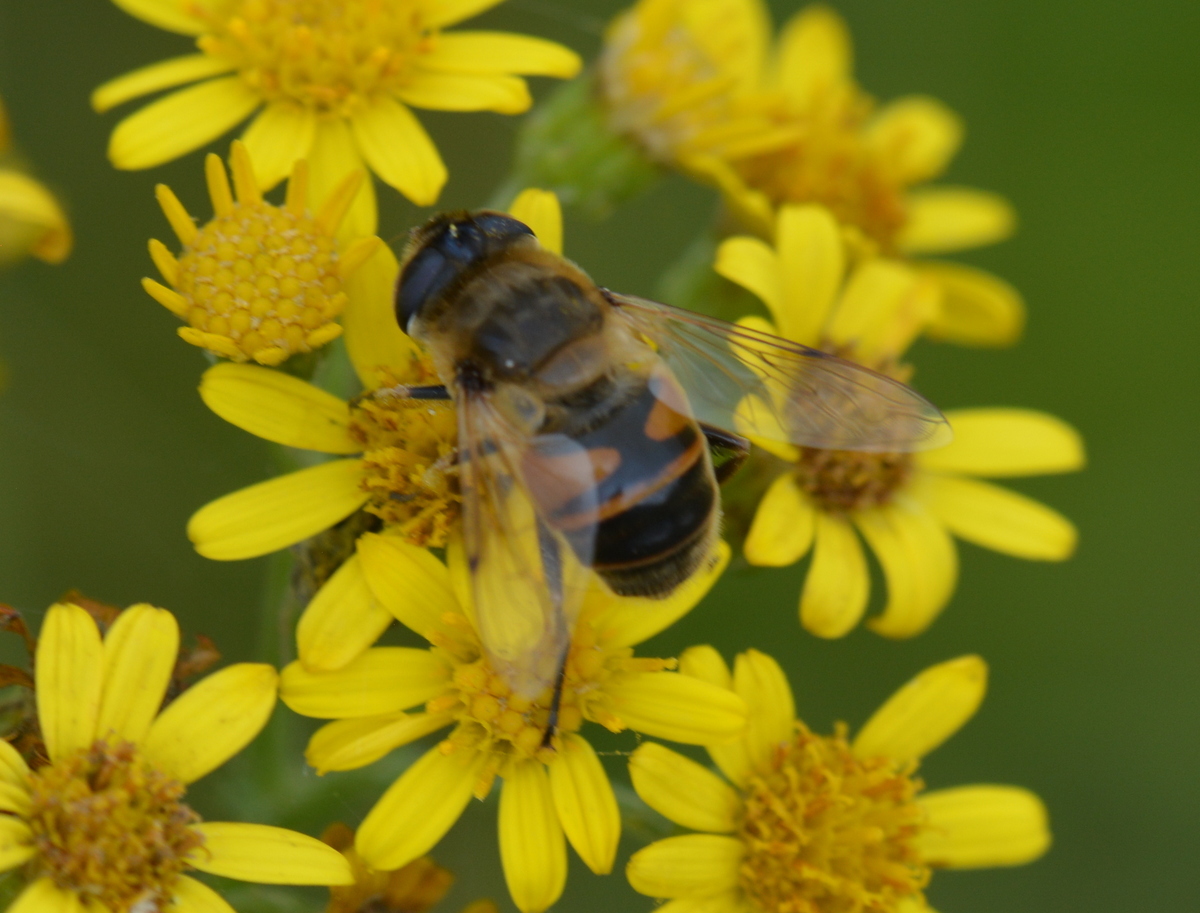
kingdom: Animalia
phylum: Arthropoda
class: Insecta
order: Diptera
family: Syrphidae
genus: Eristalis
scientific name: Eristalis tenax
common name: Drone fly
